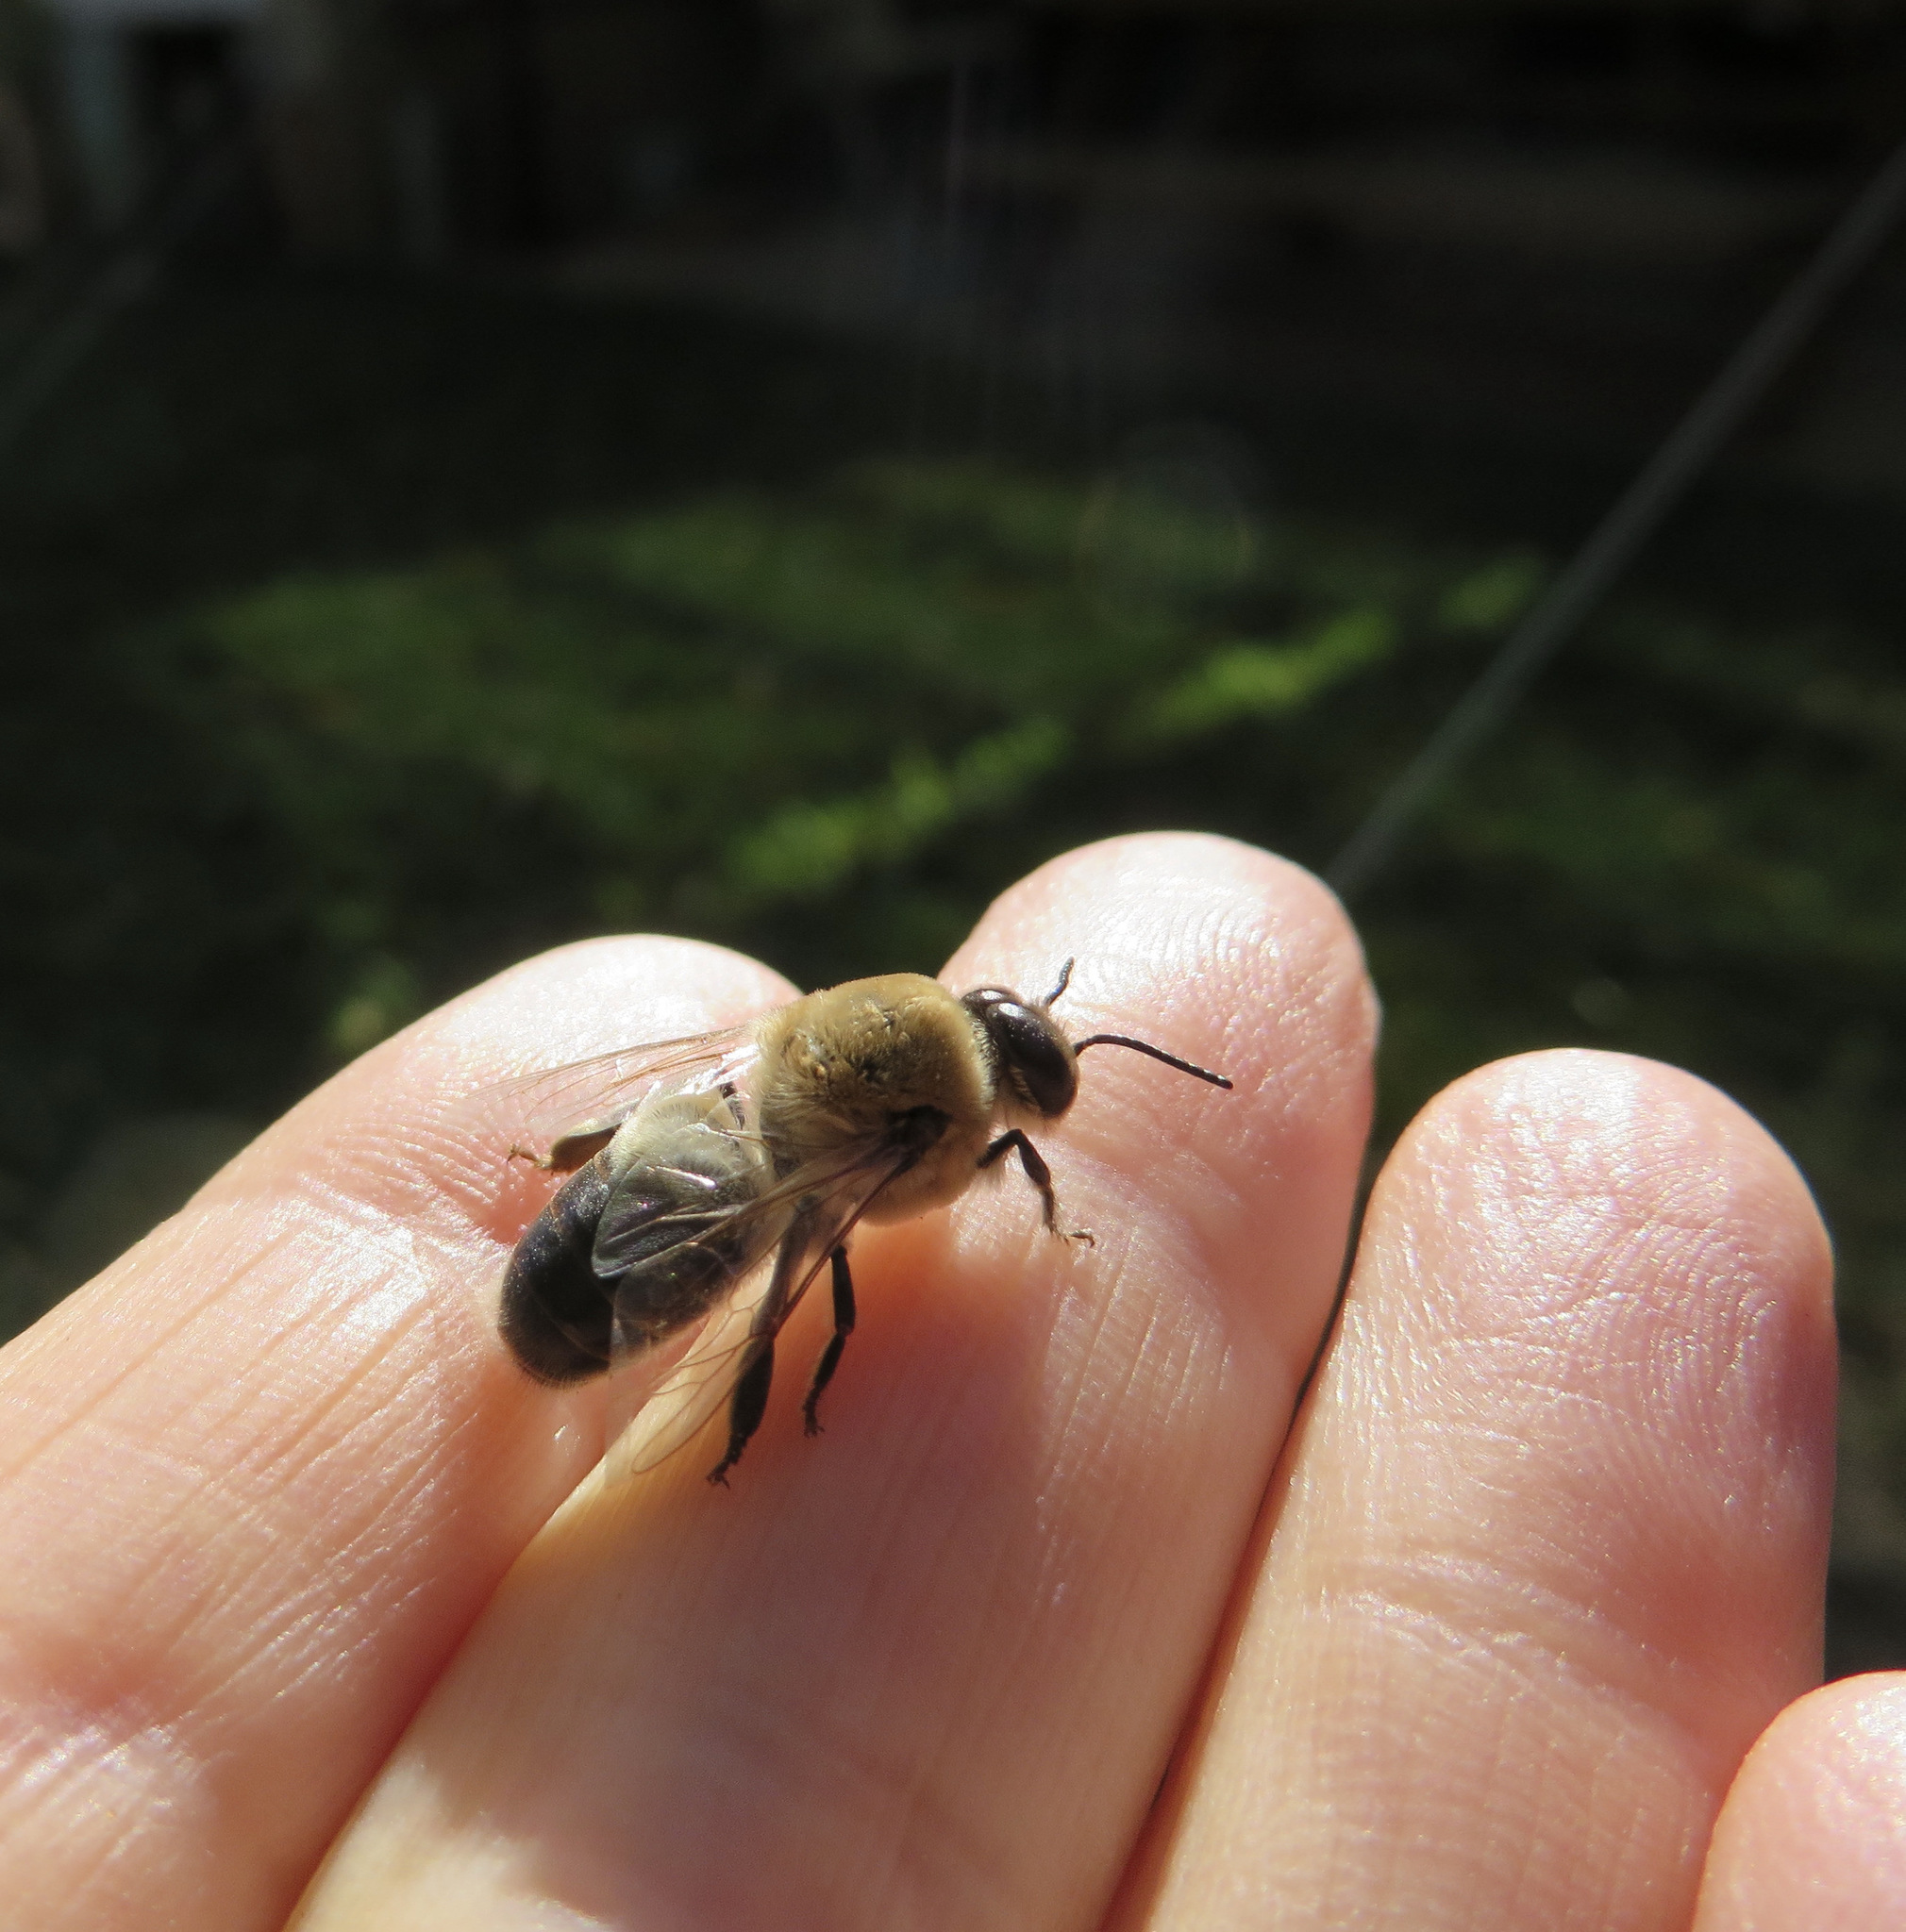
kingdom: Animalia
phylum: Arthropoda
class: Insecta
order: Hymenoptera
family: Apidae
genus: Apis
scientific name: Apis mellifera
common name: Honey bee
